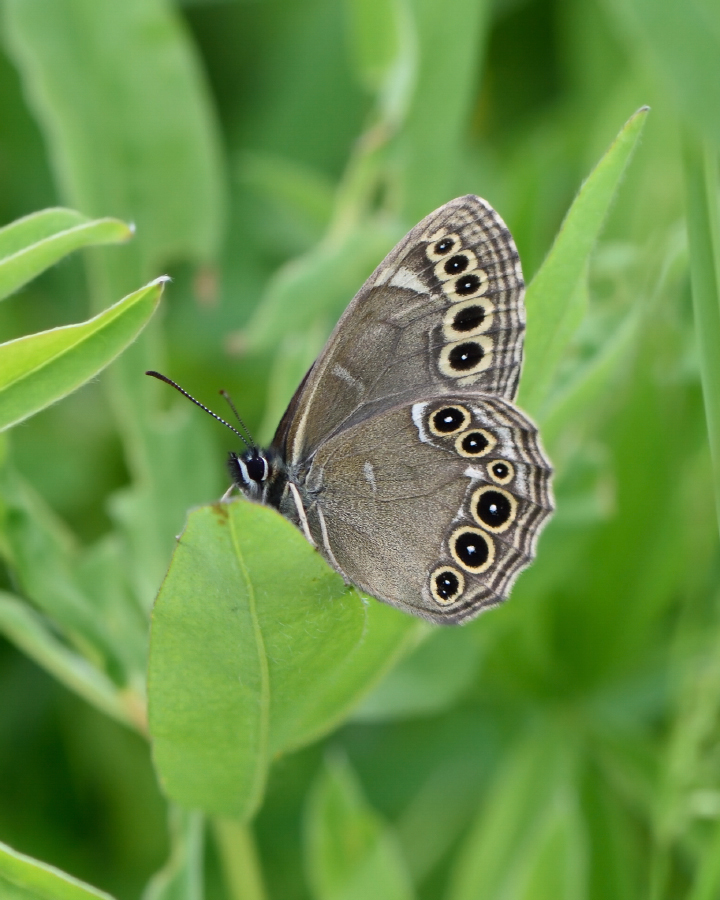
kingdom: Animalia
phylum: Arthropoda
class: Insecta
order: Lepidoptera
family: Nymphalidae
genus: Pararge
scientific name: Pararge Lopinga achine
